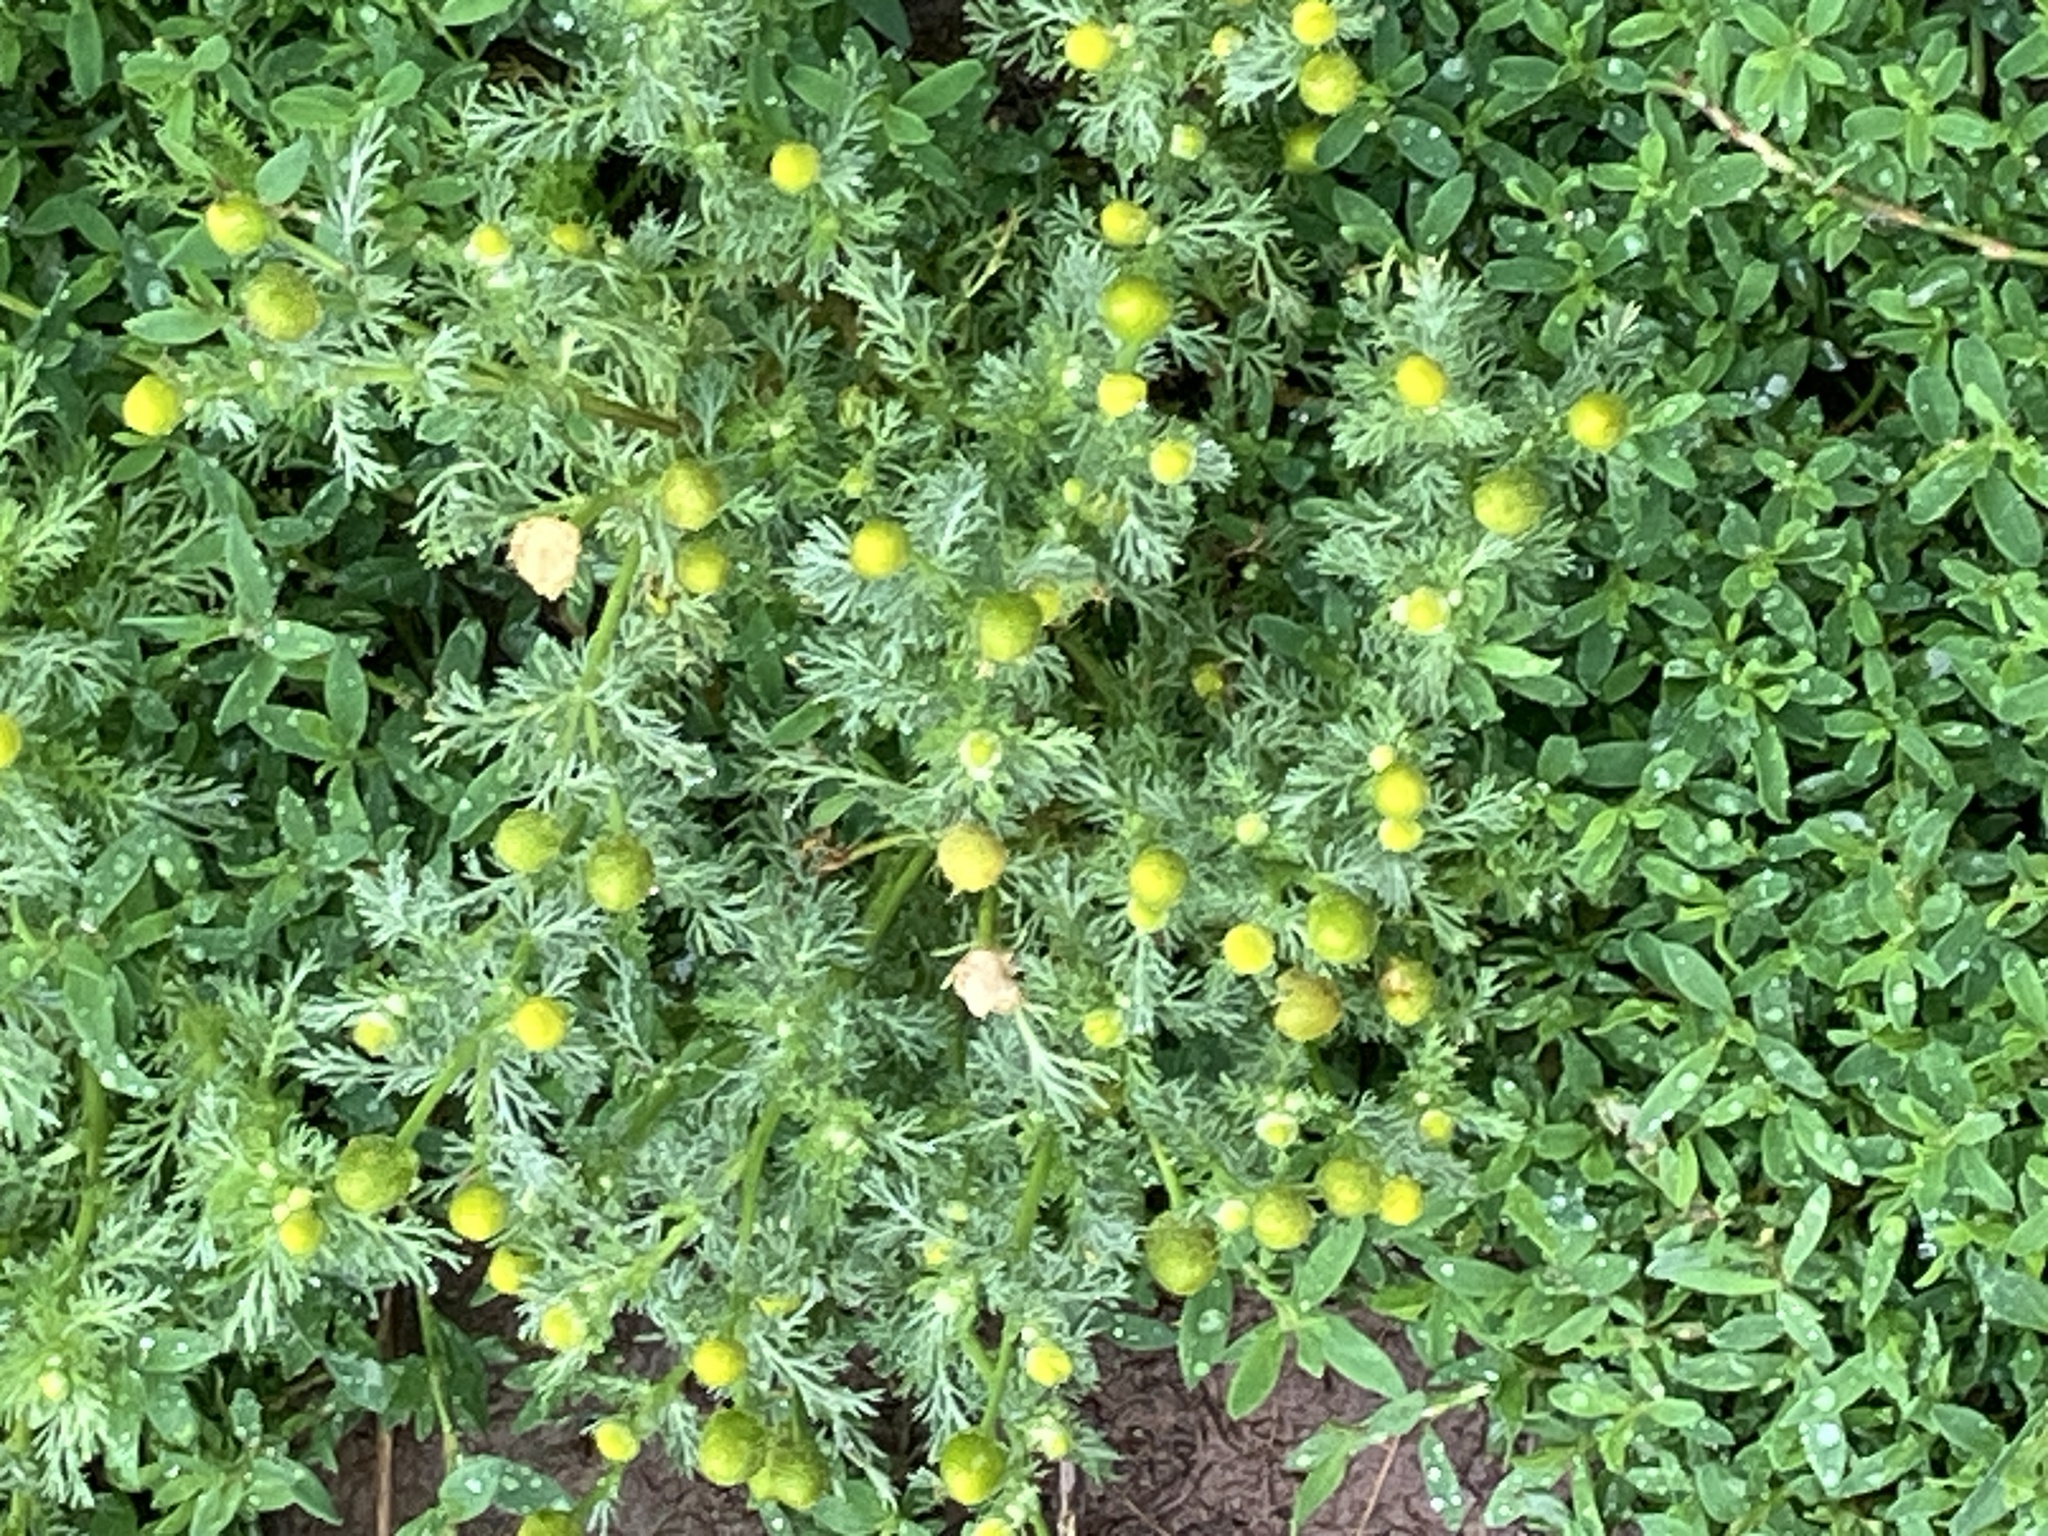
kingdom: Plantae
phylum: Tracheophyta
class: Magnoliopsida
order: Asterales
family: Asteraceae
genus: Matricaria
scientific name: Matricaria discoidea
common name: Disc mayweed
